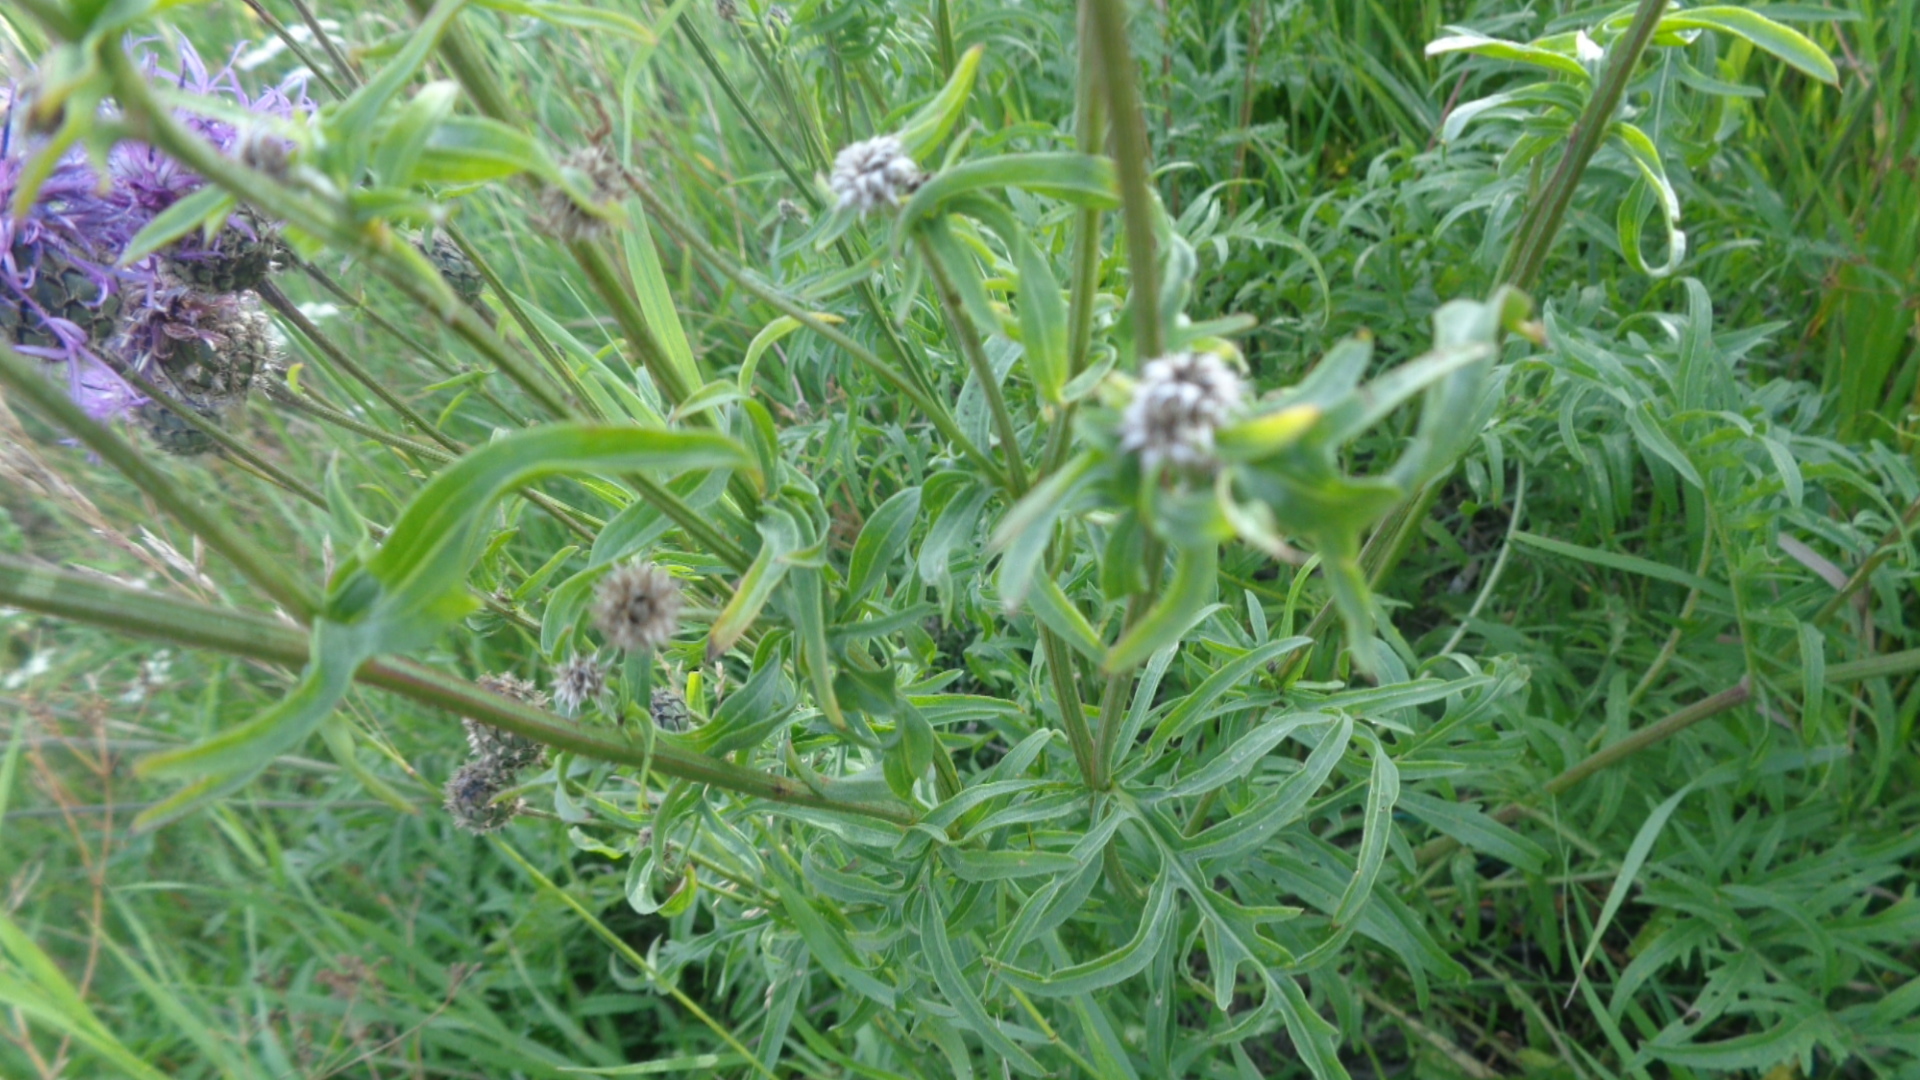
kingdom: Plantae
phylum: Tracheophyta
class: Magnoliopsida
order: Asterales
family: Asteraceae
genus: Centaurea
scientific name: Centaurea scabiosa
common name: Greater knapweed
